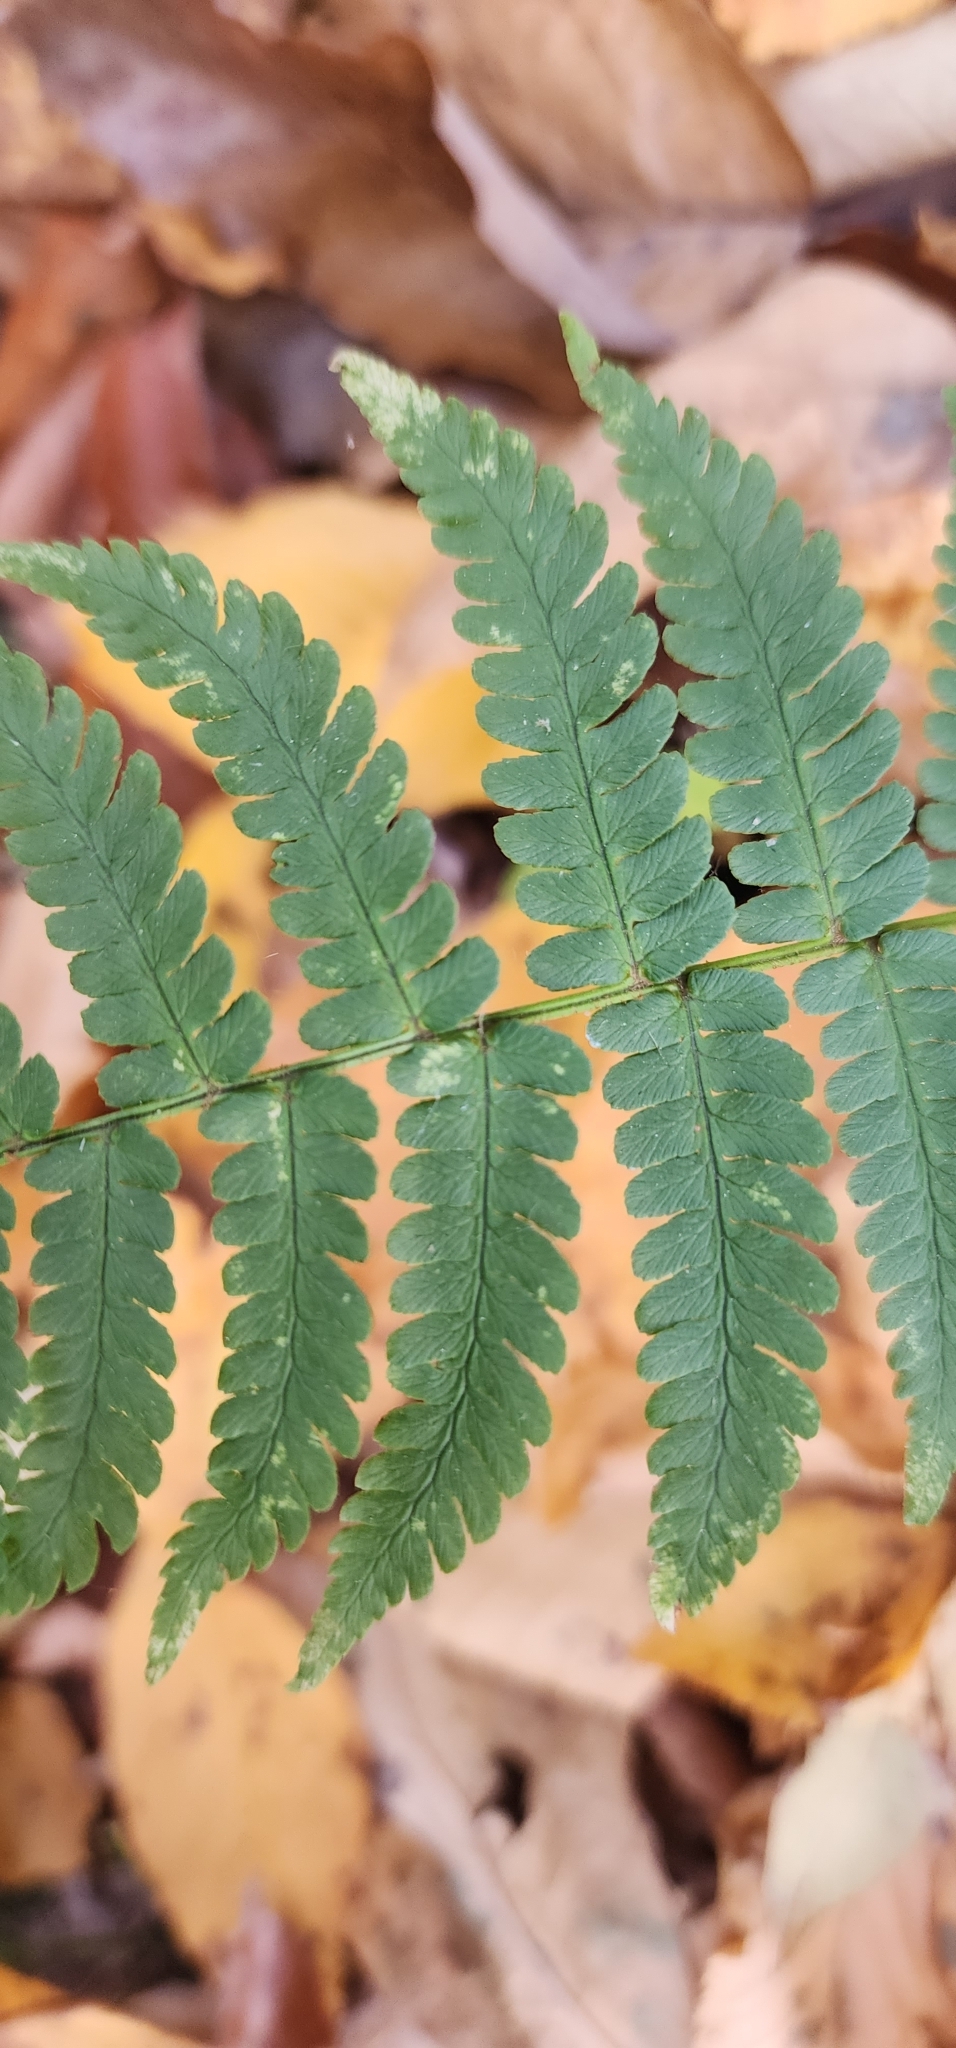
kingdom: Plantae
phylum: Tracheophyta
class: Polypodiopsida
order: Polypodiales
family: Dryopteridaceae
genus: Dryopteris
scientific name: Dryopteris marginalis
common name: Marginal wood fern
